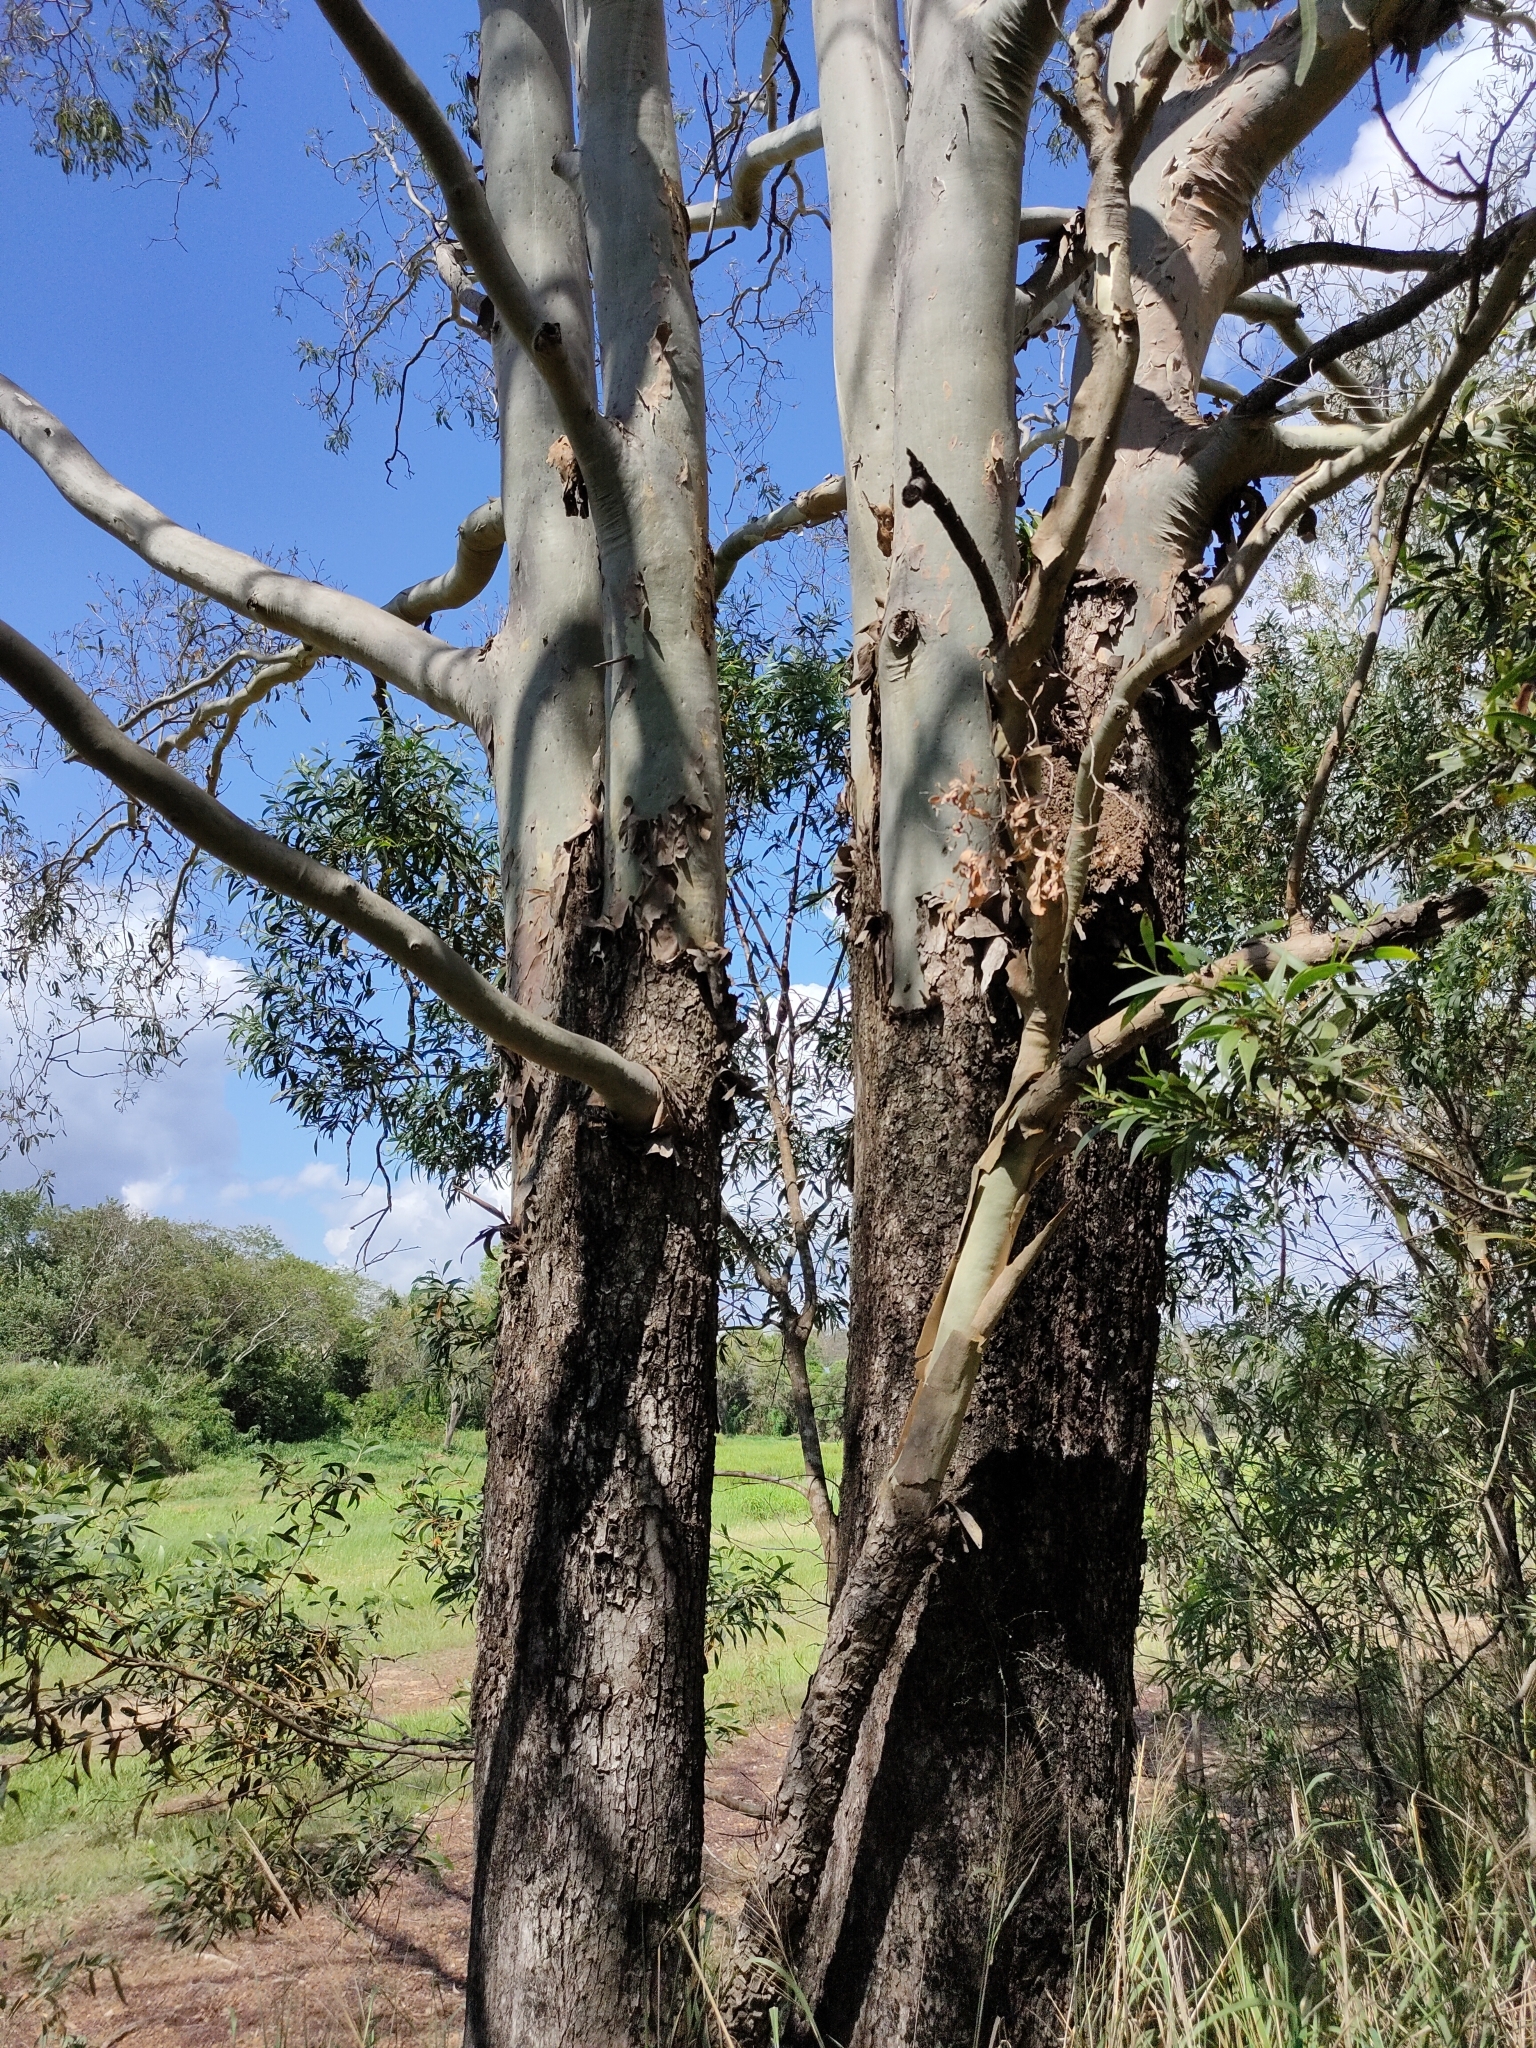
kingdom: Plantae
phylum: Tracheophyta
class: Magnoliopsida
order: Myrtales
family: Myrtaceae
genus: Corymbia
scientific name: Corymbia tessellaris
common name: Carbeen
